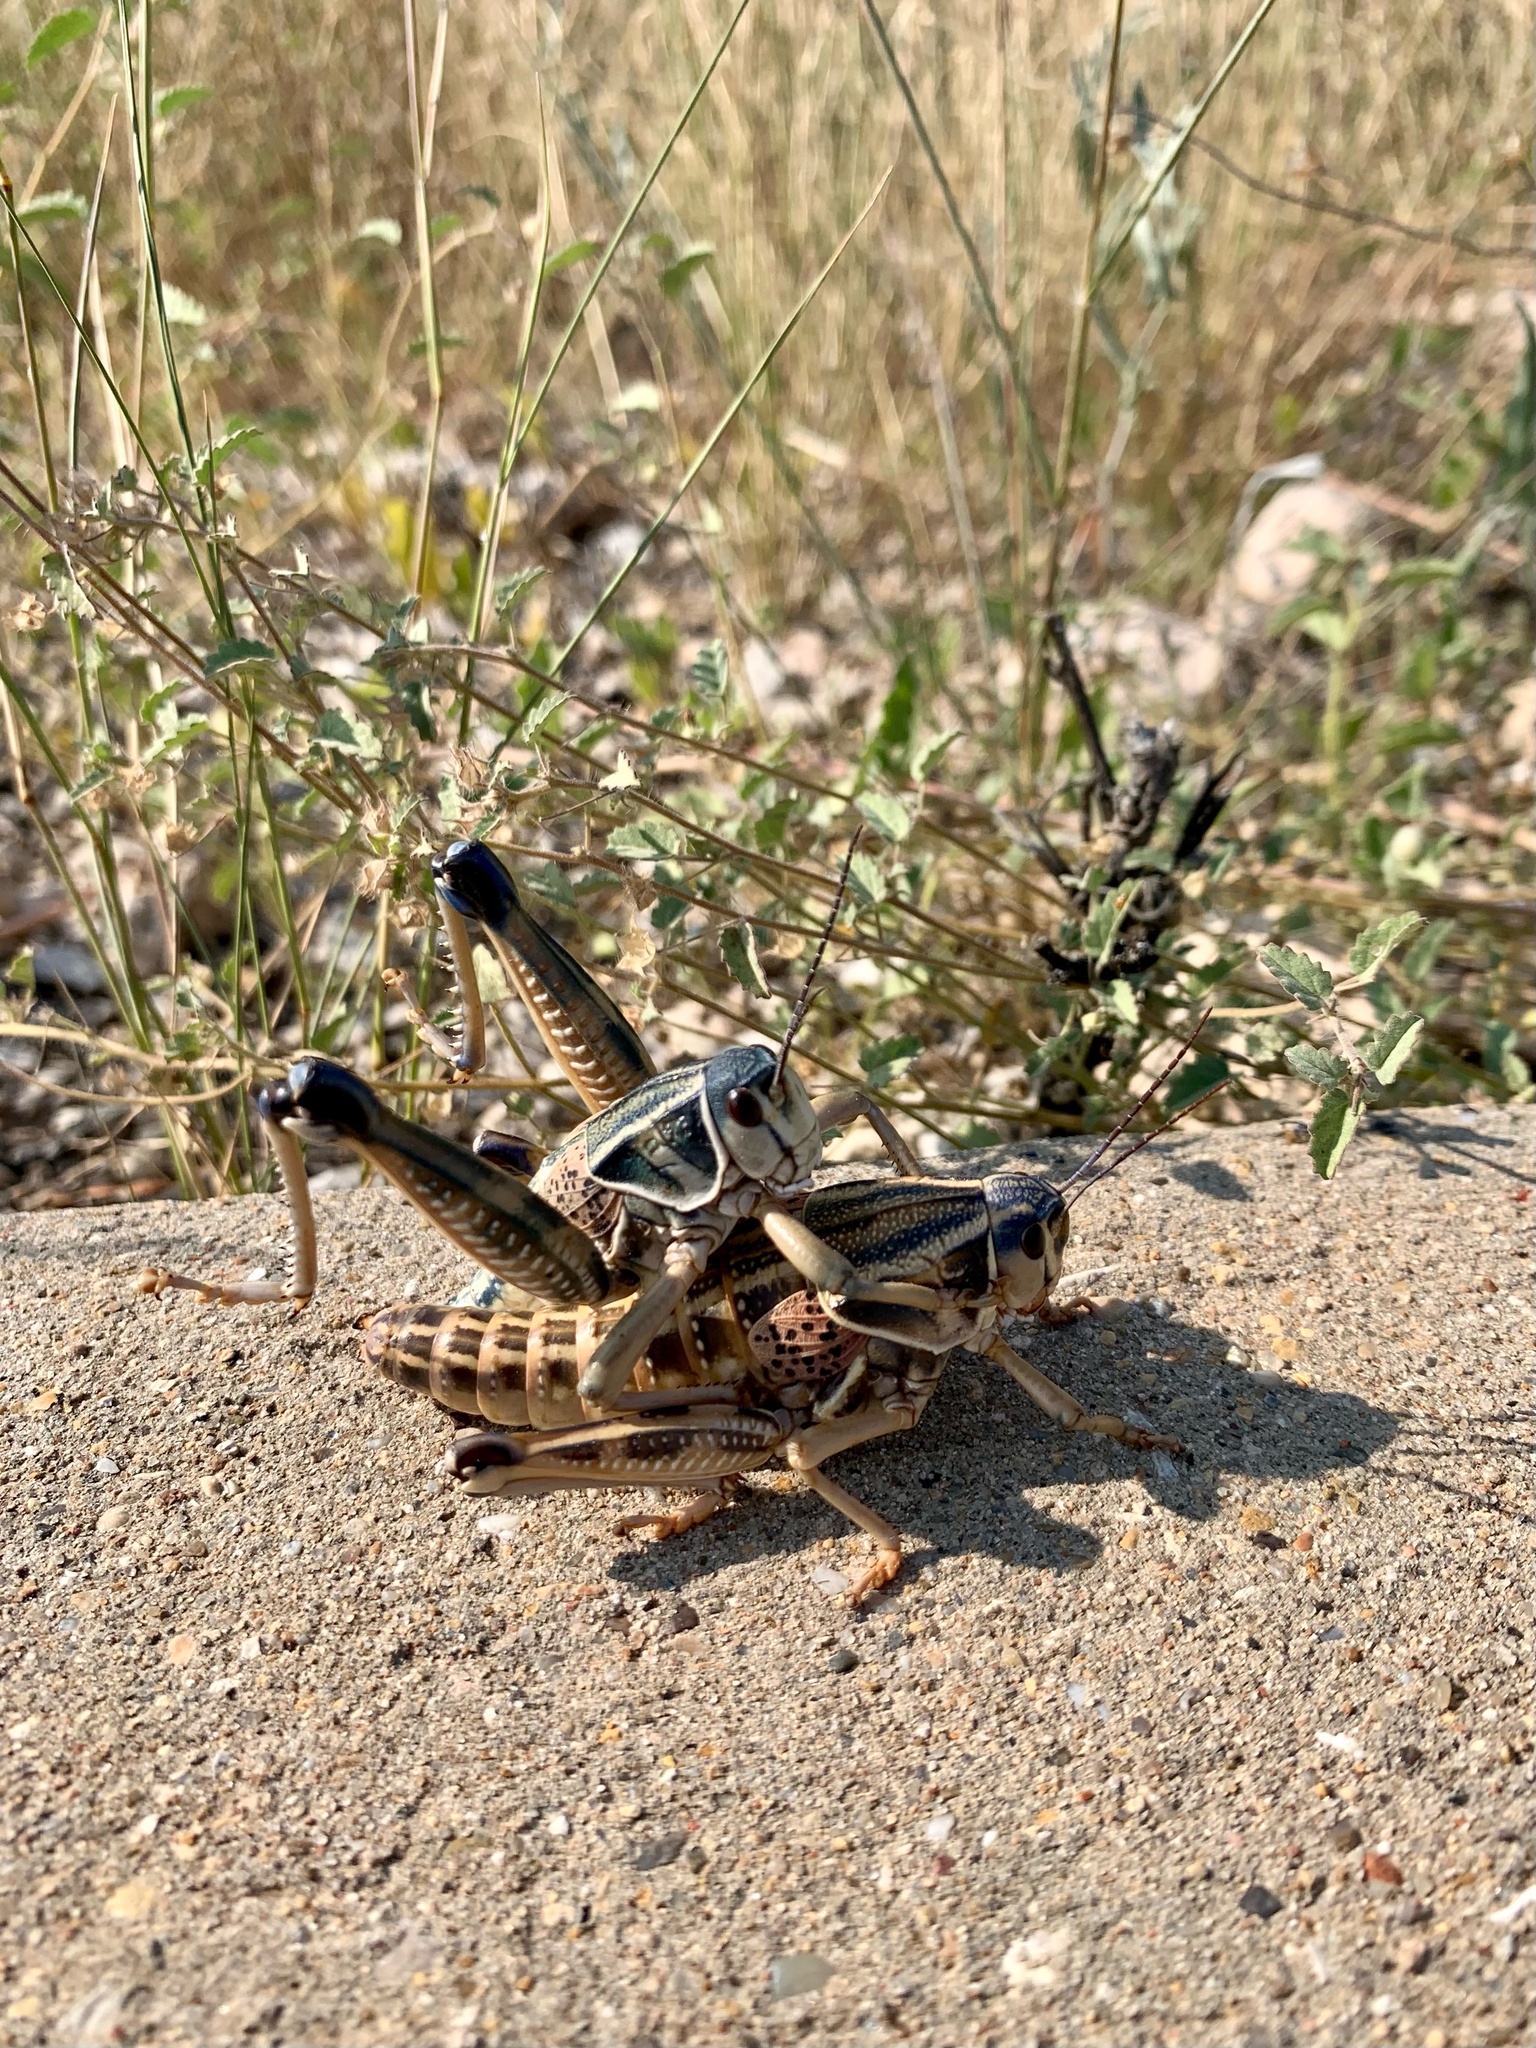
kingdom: Animalia
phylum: Arthropoda
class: Insecta
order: Orthoptera
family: Romaleidae
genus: Brachystola
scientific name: Brachystola magna
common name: Plains lubber grasshopper
